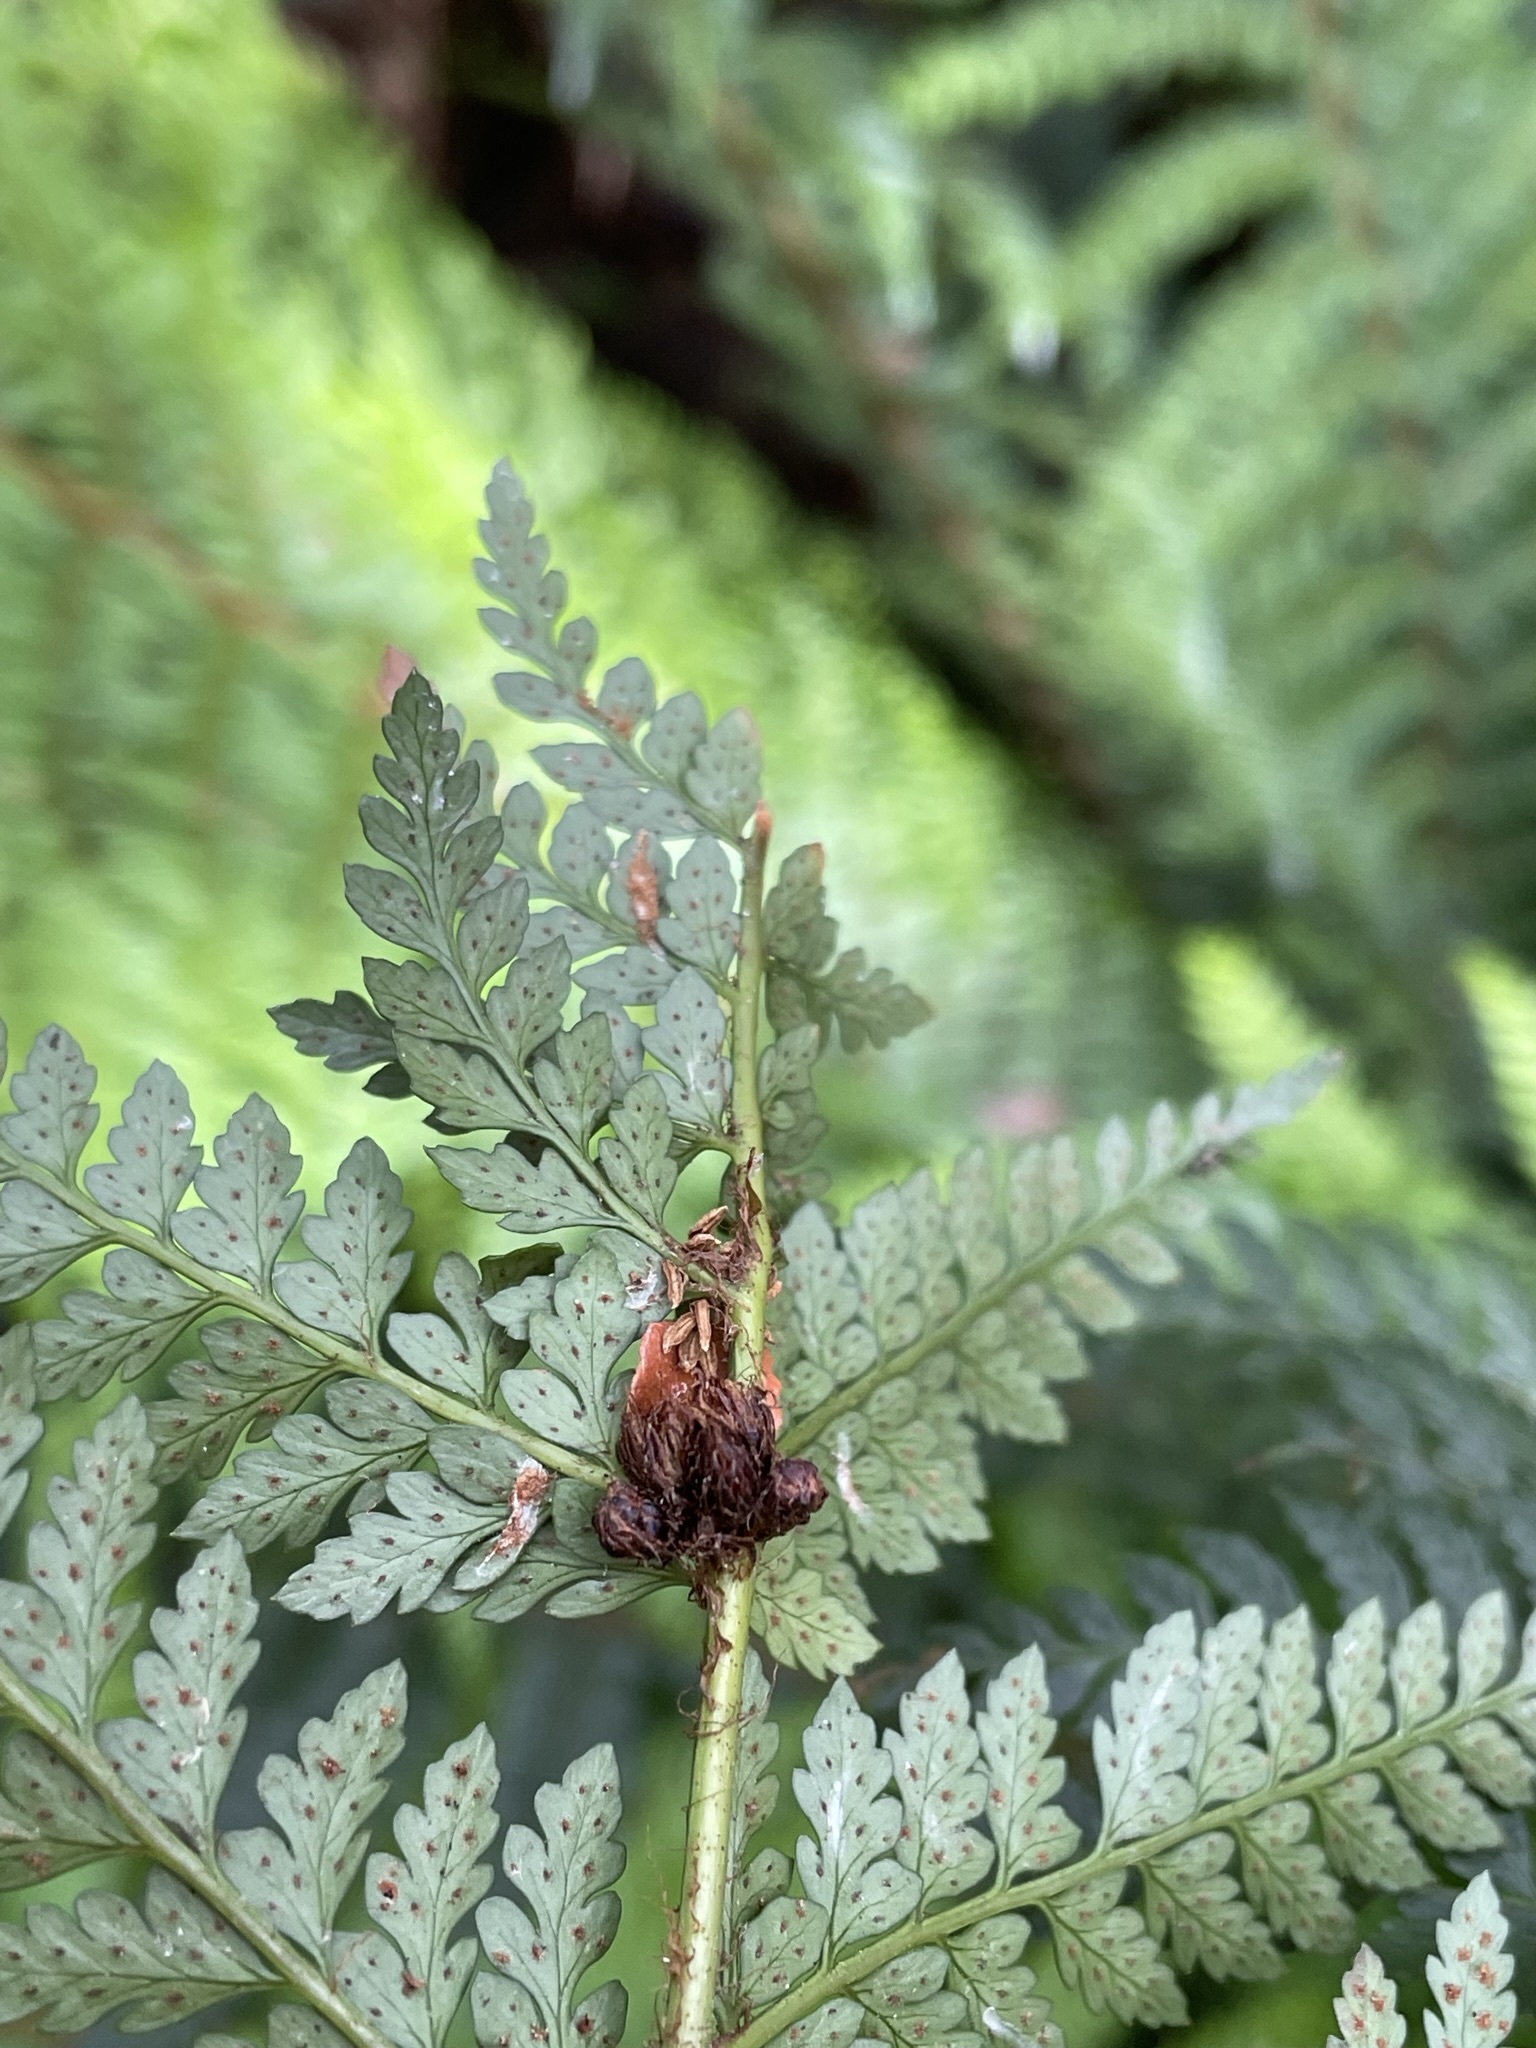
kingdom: Plantae
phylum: Tracheophyta
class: Polypodiopsida
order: Polypodiales
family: Dryopteridaceae
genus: Polystichum
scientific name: Polystichum proliferum
